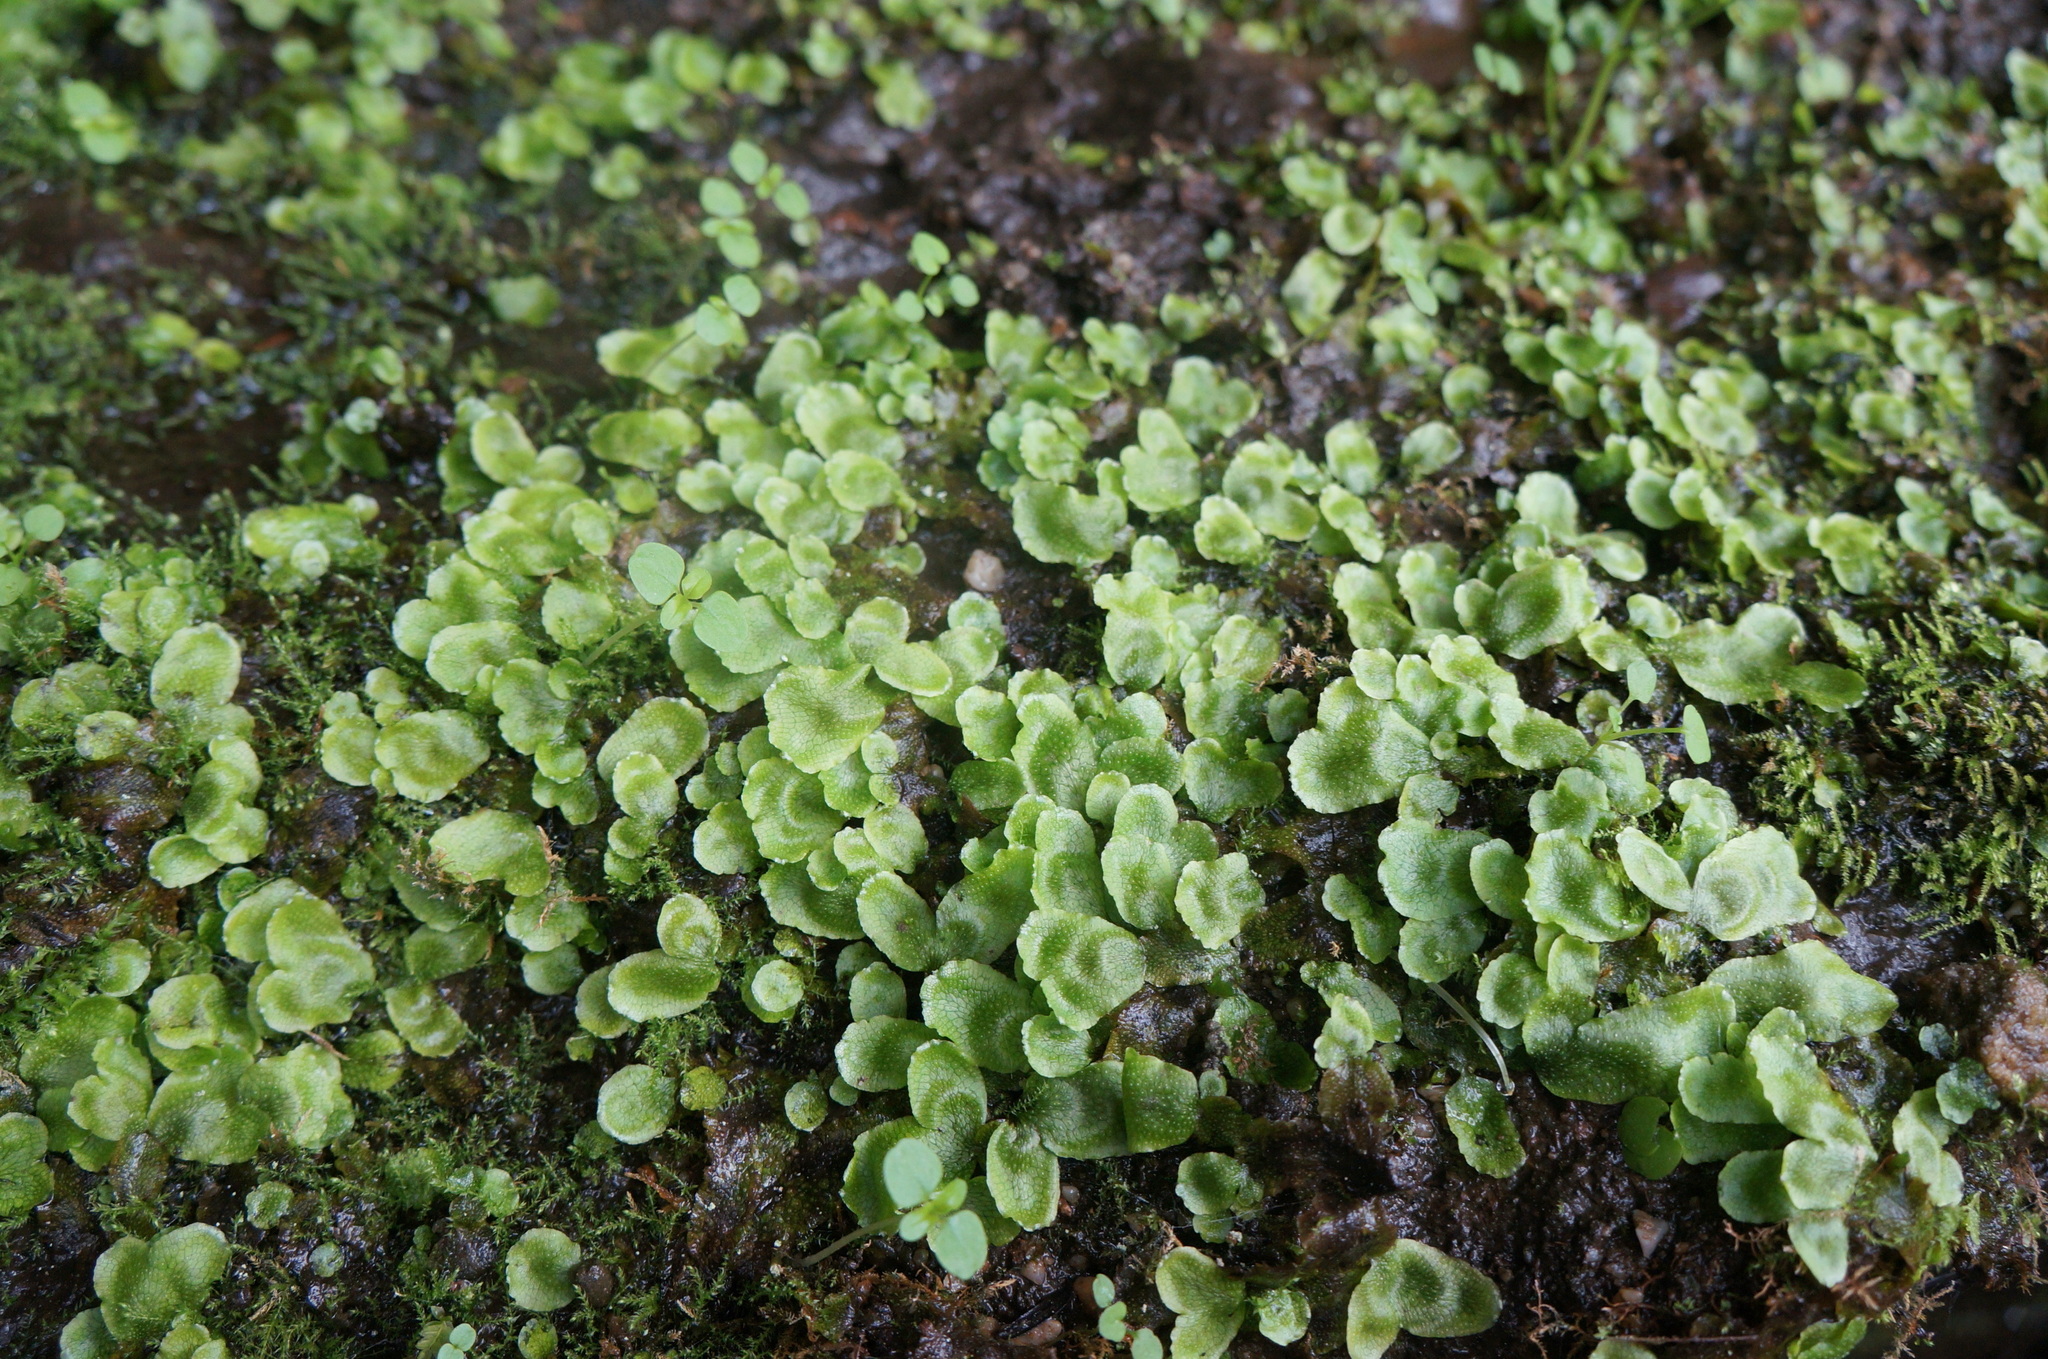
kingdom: Plantae
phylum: Marchantiophyta
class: Marchantiopsida
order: Marchantiales
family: Conocephalaceae
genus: Conocephalum
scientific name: Conocephalum salebrosum
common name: Cat-tongue liverwort
